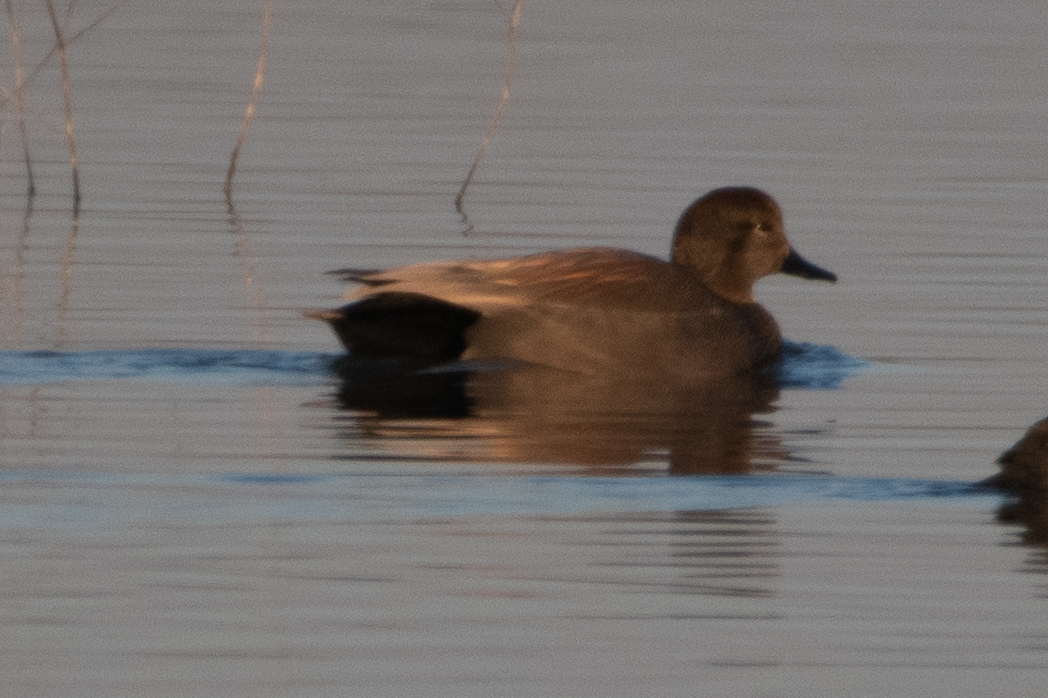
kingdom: Animalia
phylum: Chordata
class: Aves
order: Anseriformes
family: Anatidae
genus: Mareca
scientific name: Mareca strepera
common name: Gadwall
